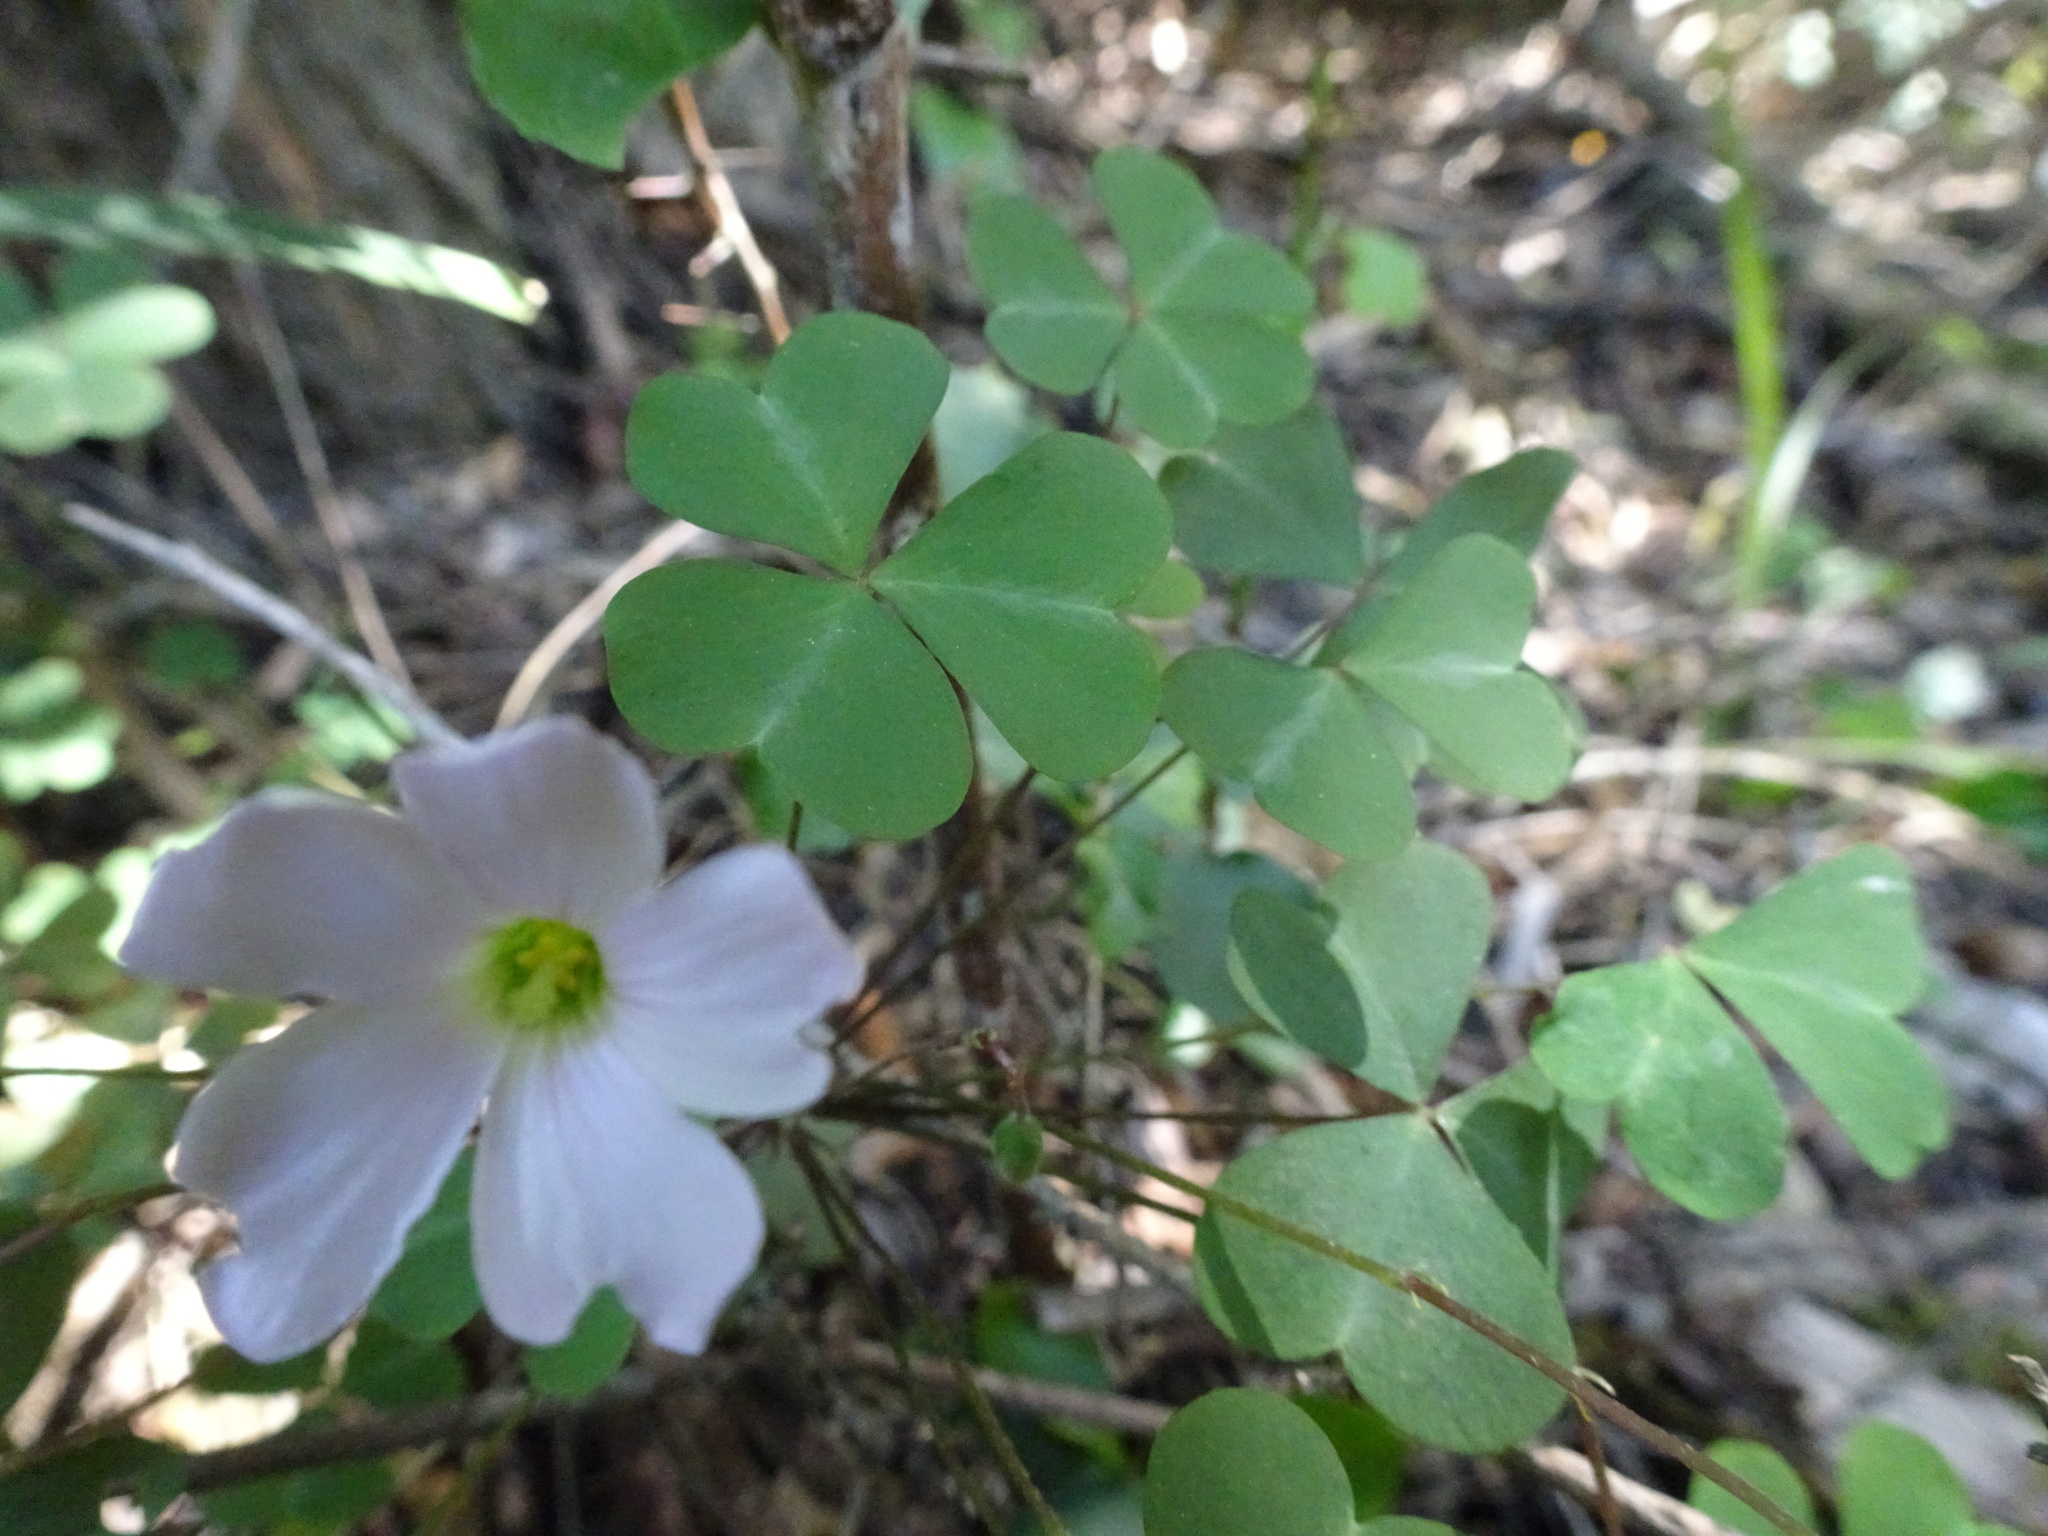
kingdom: Plantae
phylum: Tracheophyta
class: Magnoliopsida
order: Oxalidales
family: Oxalidaceae
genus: Oxalis
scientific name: Oxalis incarnata
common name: Pale pink-sorrel
